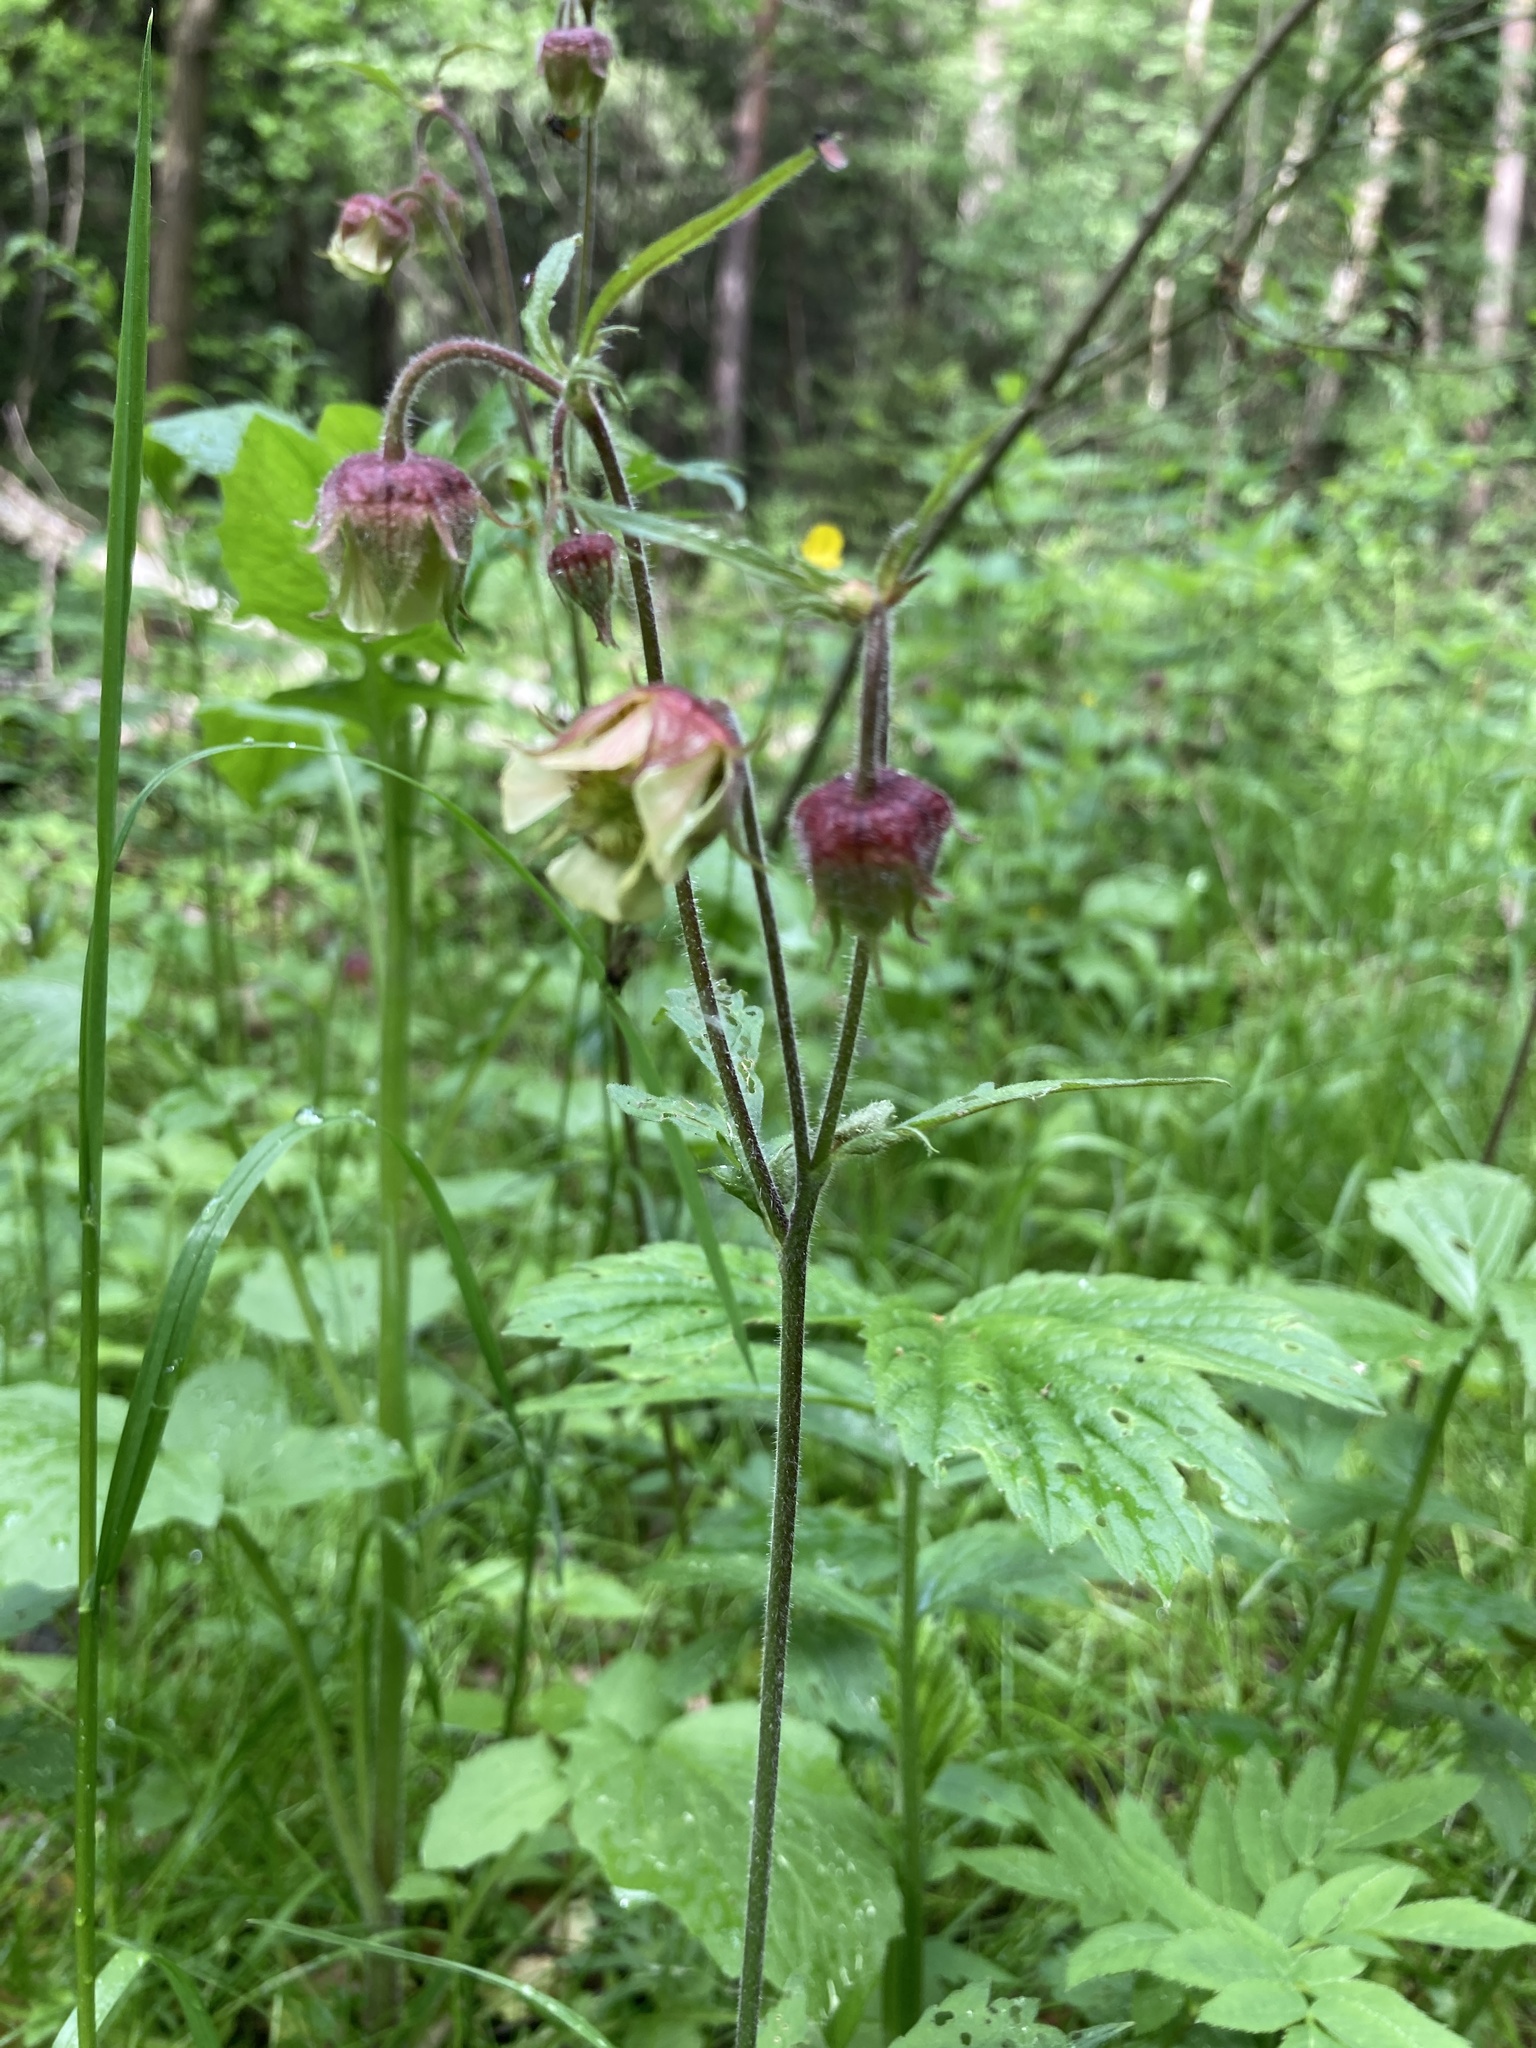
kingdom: Plantae
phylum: Tracheophyta
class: Magnoliopsida
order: Rosales
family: Rosaceae
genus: Geum
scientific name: Geum rivale
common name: Water avens
